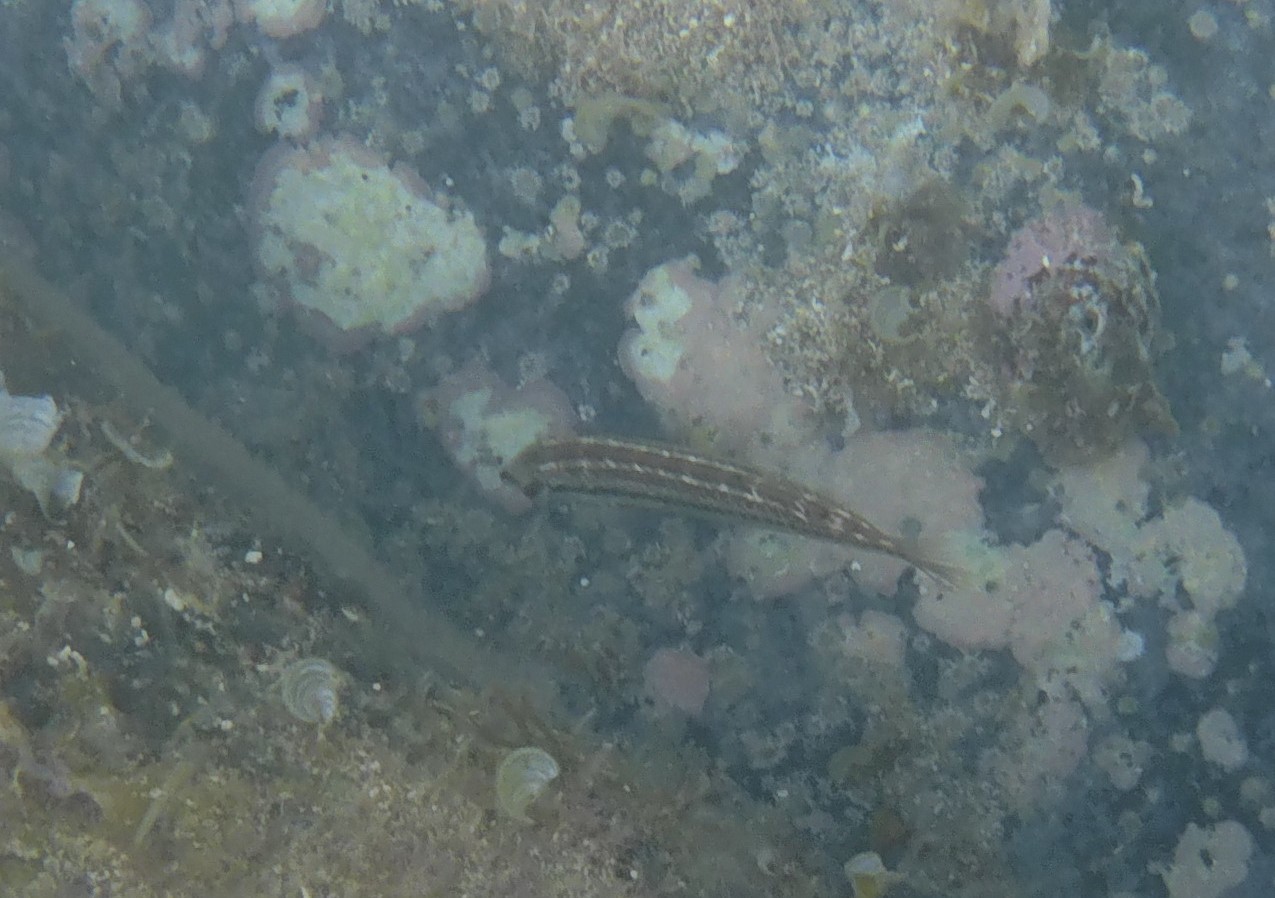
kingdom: Animalia
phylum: Chordata
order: Perciformes
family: Labridae
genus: Halichoeres
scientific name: Halichoeres bivittatus
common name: Slippery dick
